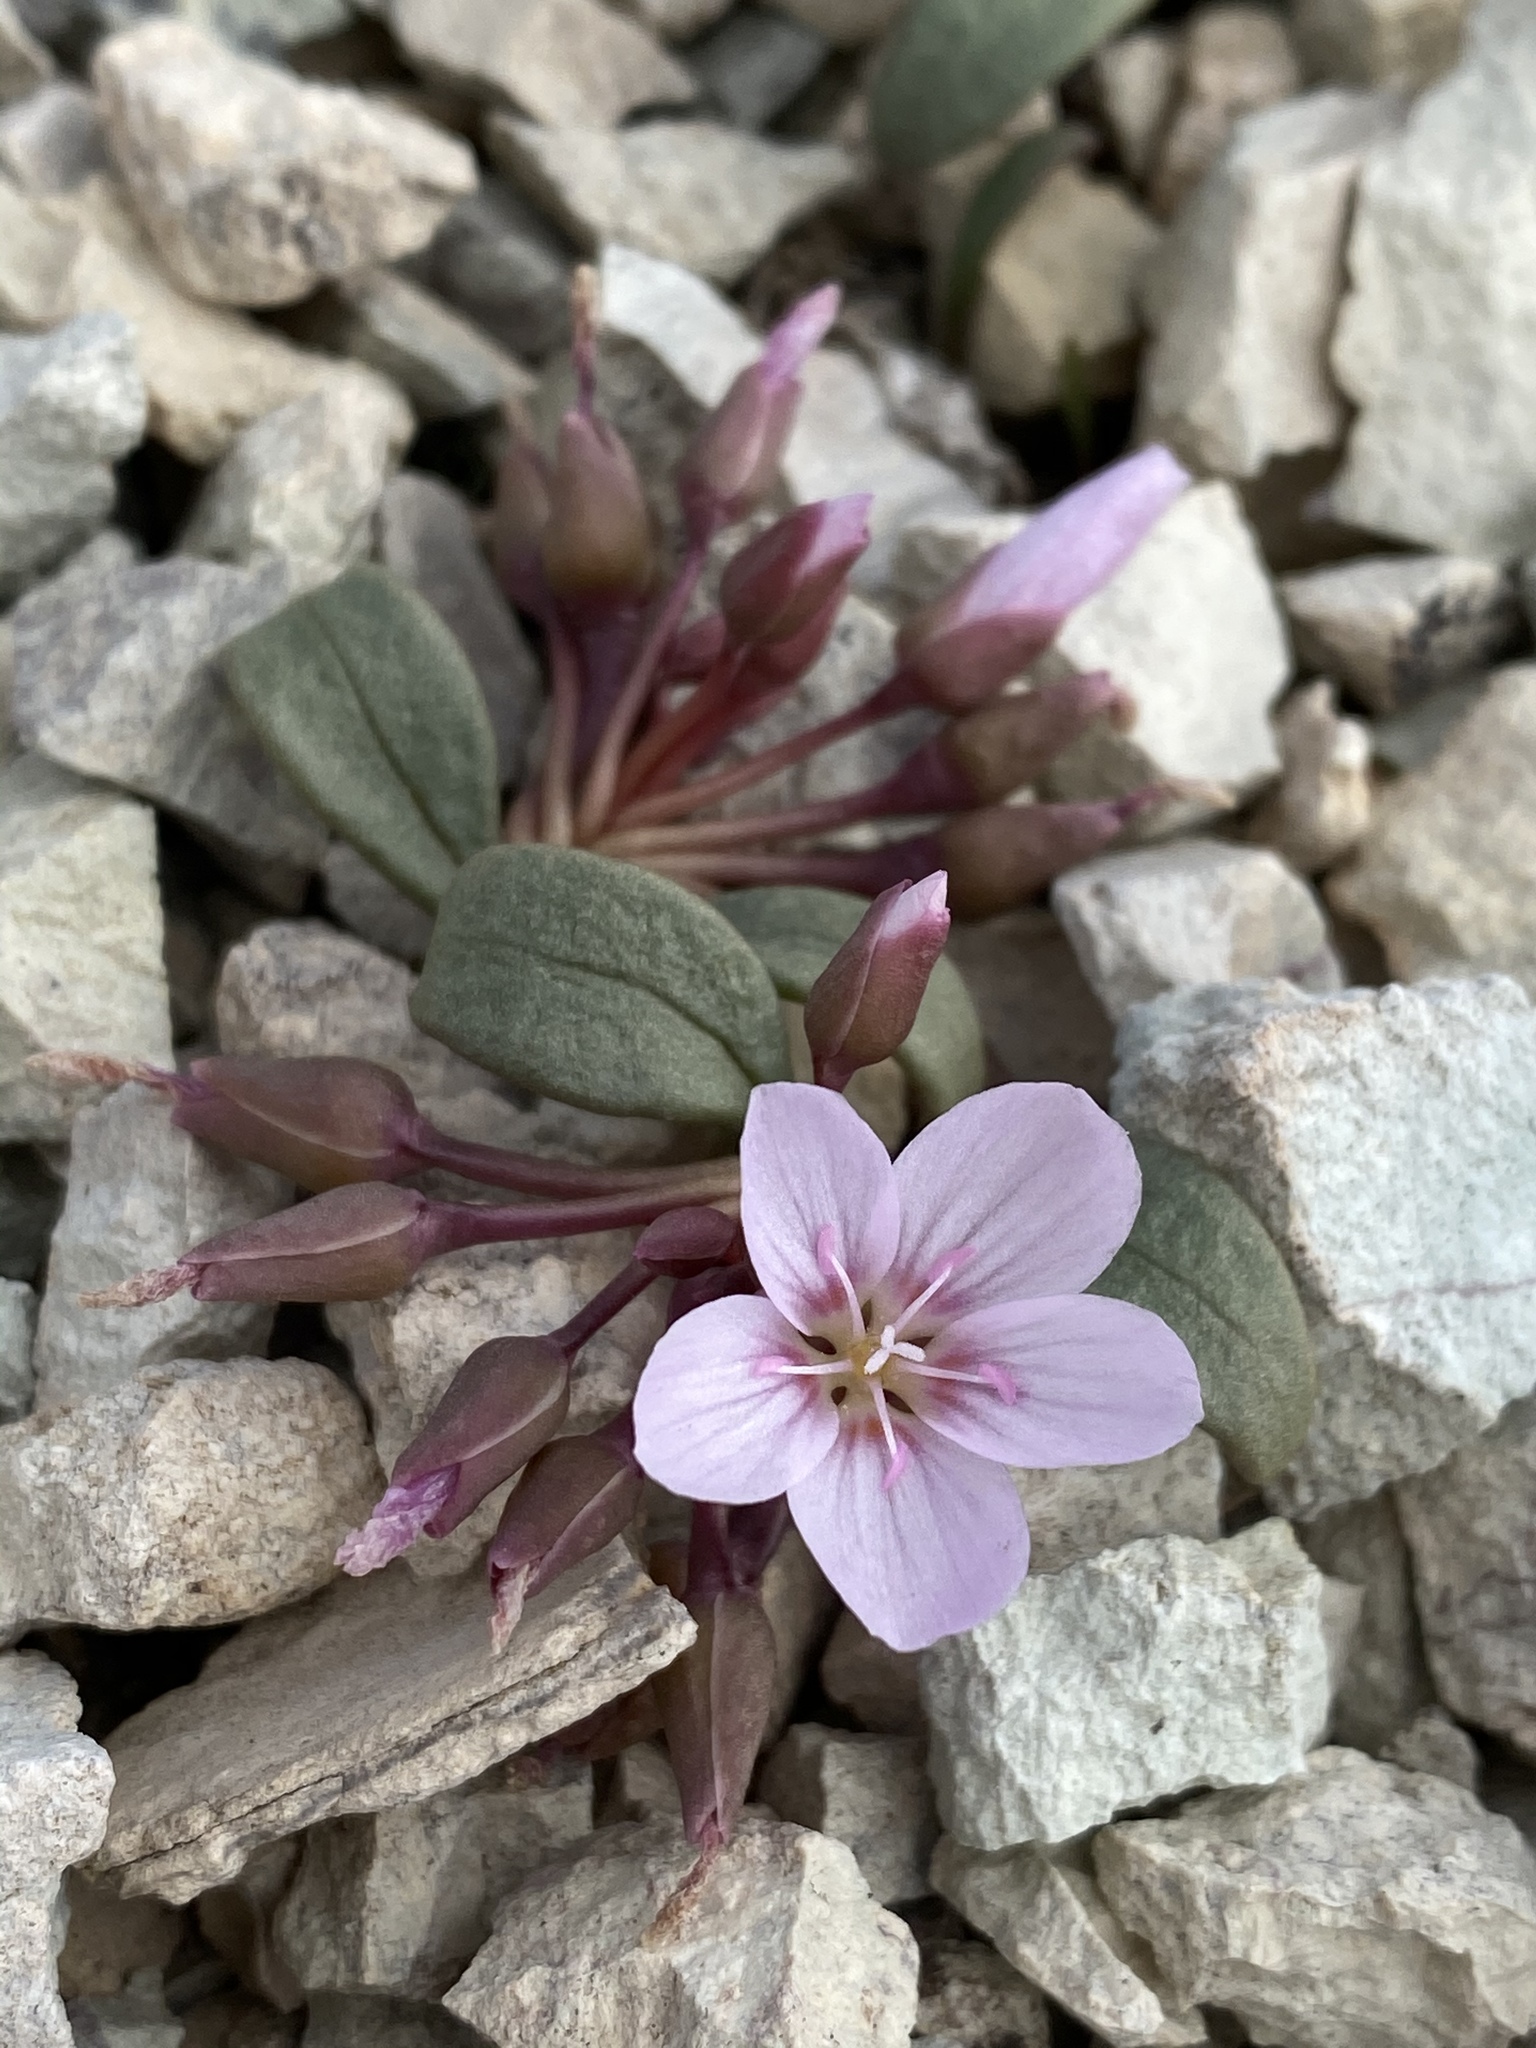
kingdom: Plantae
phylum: Tracheophyta
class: Magnoliopsida
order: Caryophyllales
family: Montiaceae
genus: Claytonia
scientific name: Claytonia peirsonii
